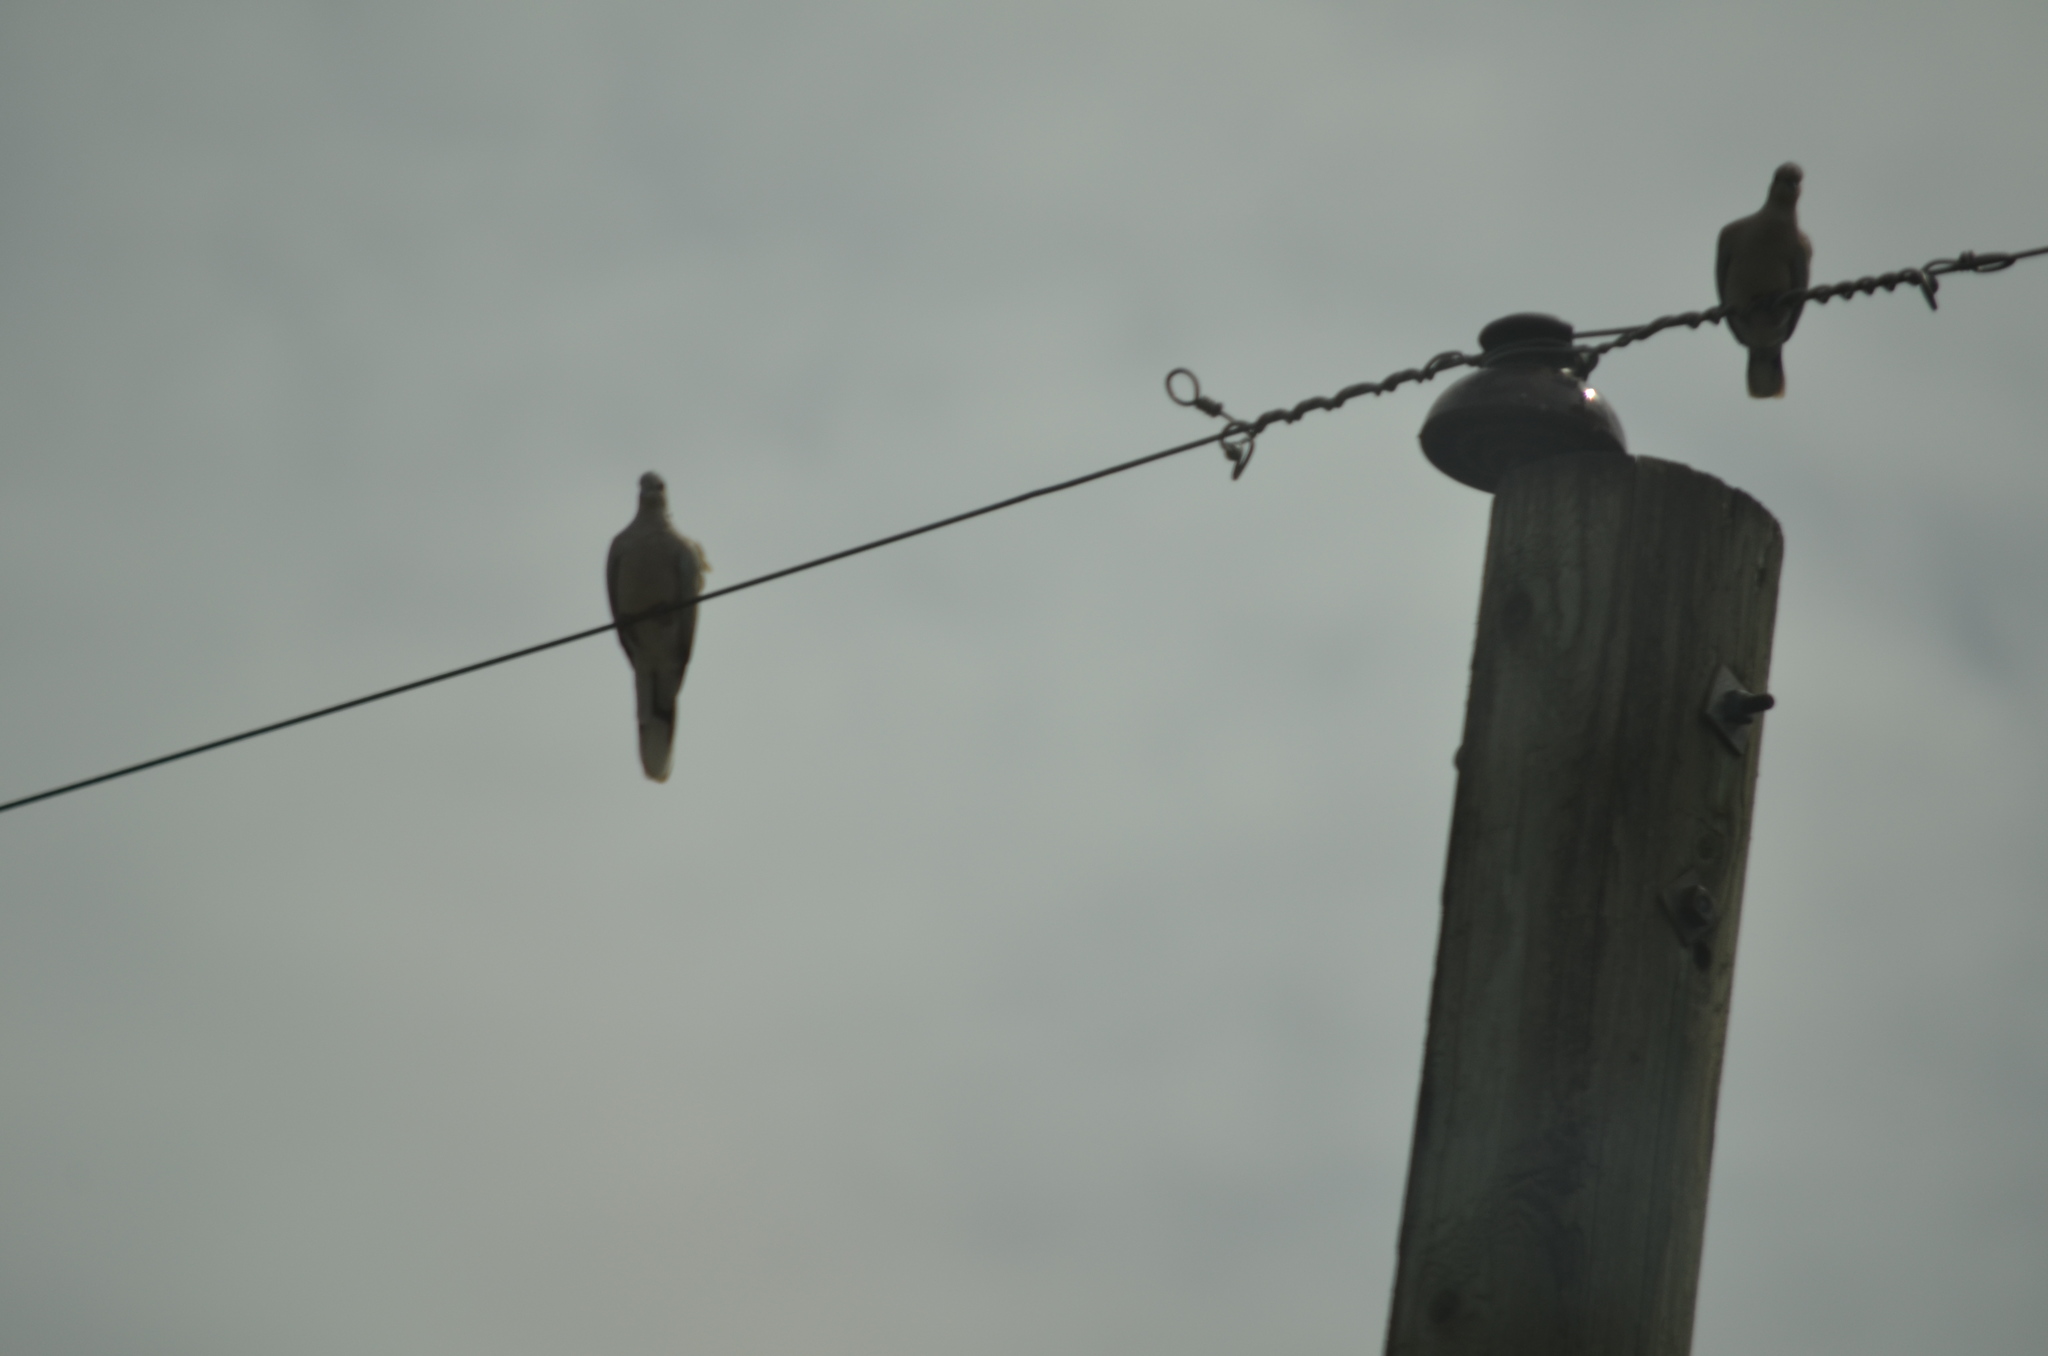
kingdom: Animalia
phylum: Chordata
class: Aves
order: Columbiformes
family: Columbidae
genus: Streptopelia
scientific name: Streptopelia decaocto
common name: Eurasian collared dove
